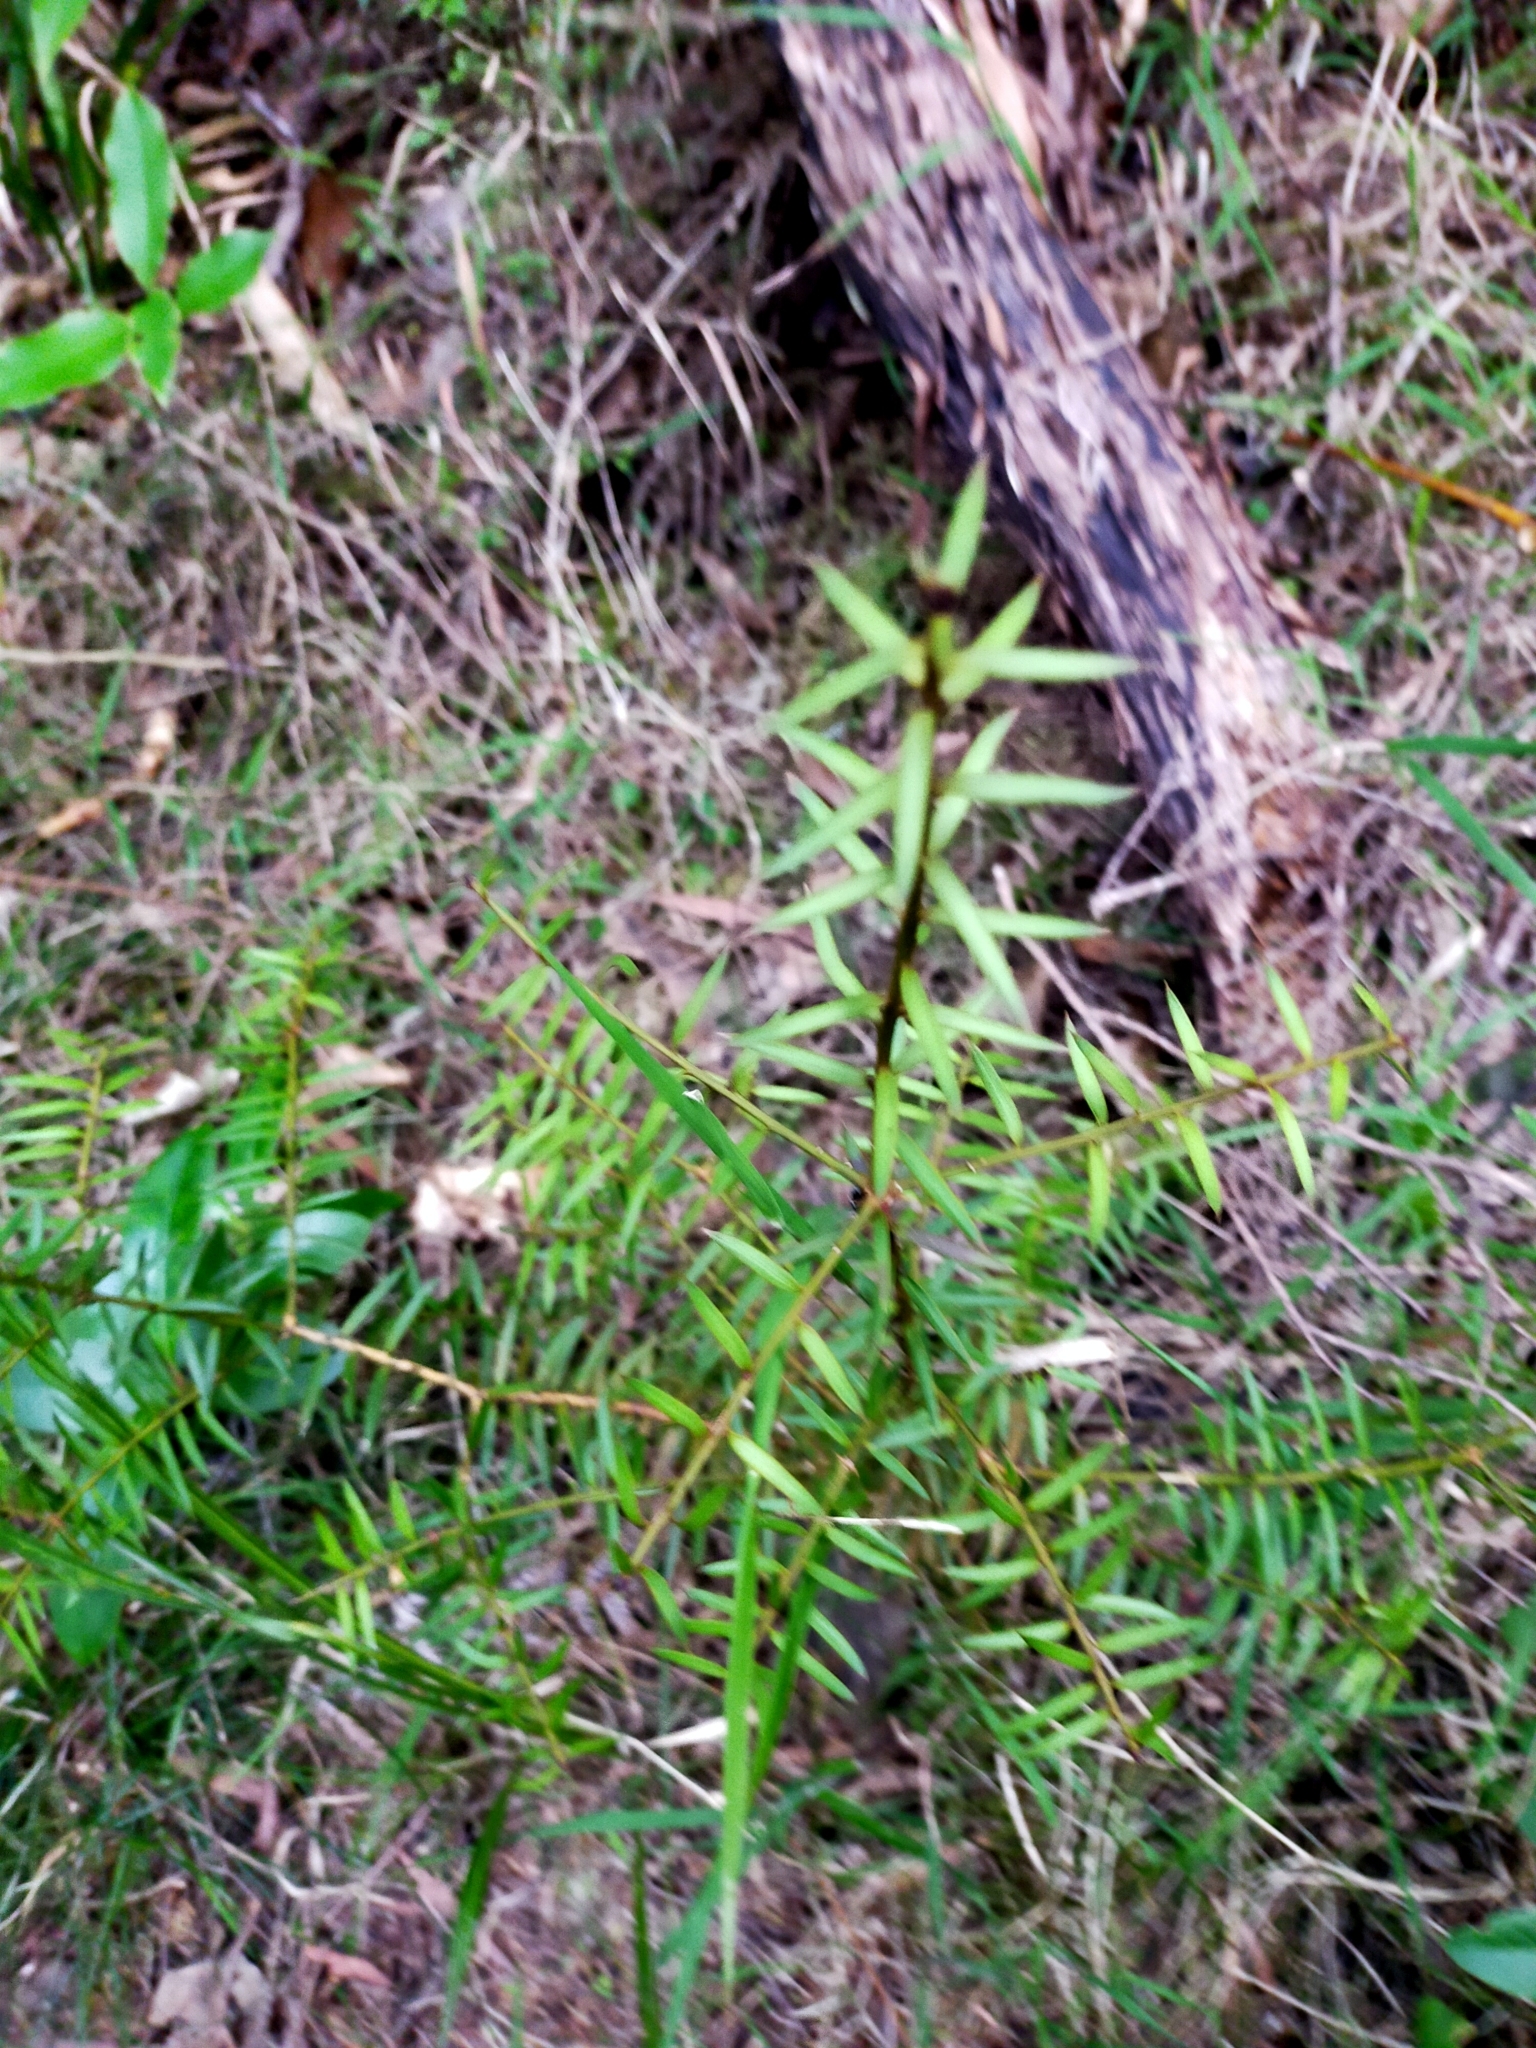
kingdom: Plantae
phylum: Tracheophyta
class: Pinopsida
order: Pinales
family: Podocarpaceae
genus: Podocarpus
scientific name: Podocarpus totara
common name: Totara
